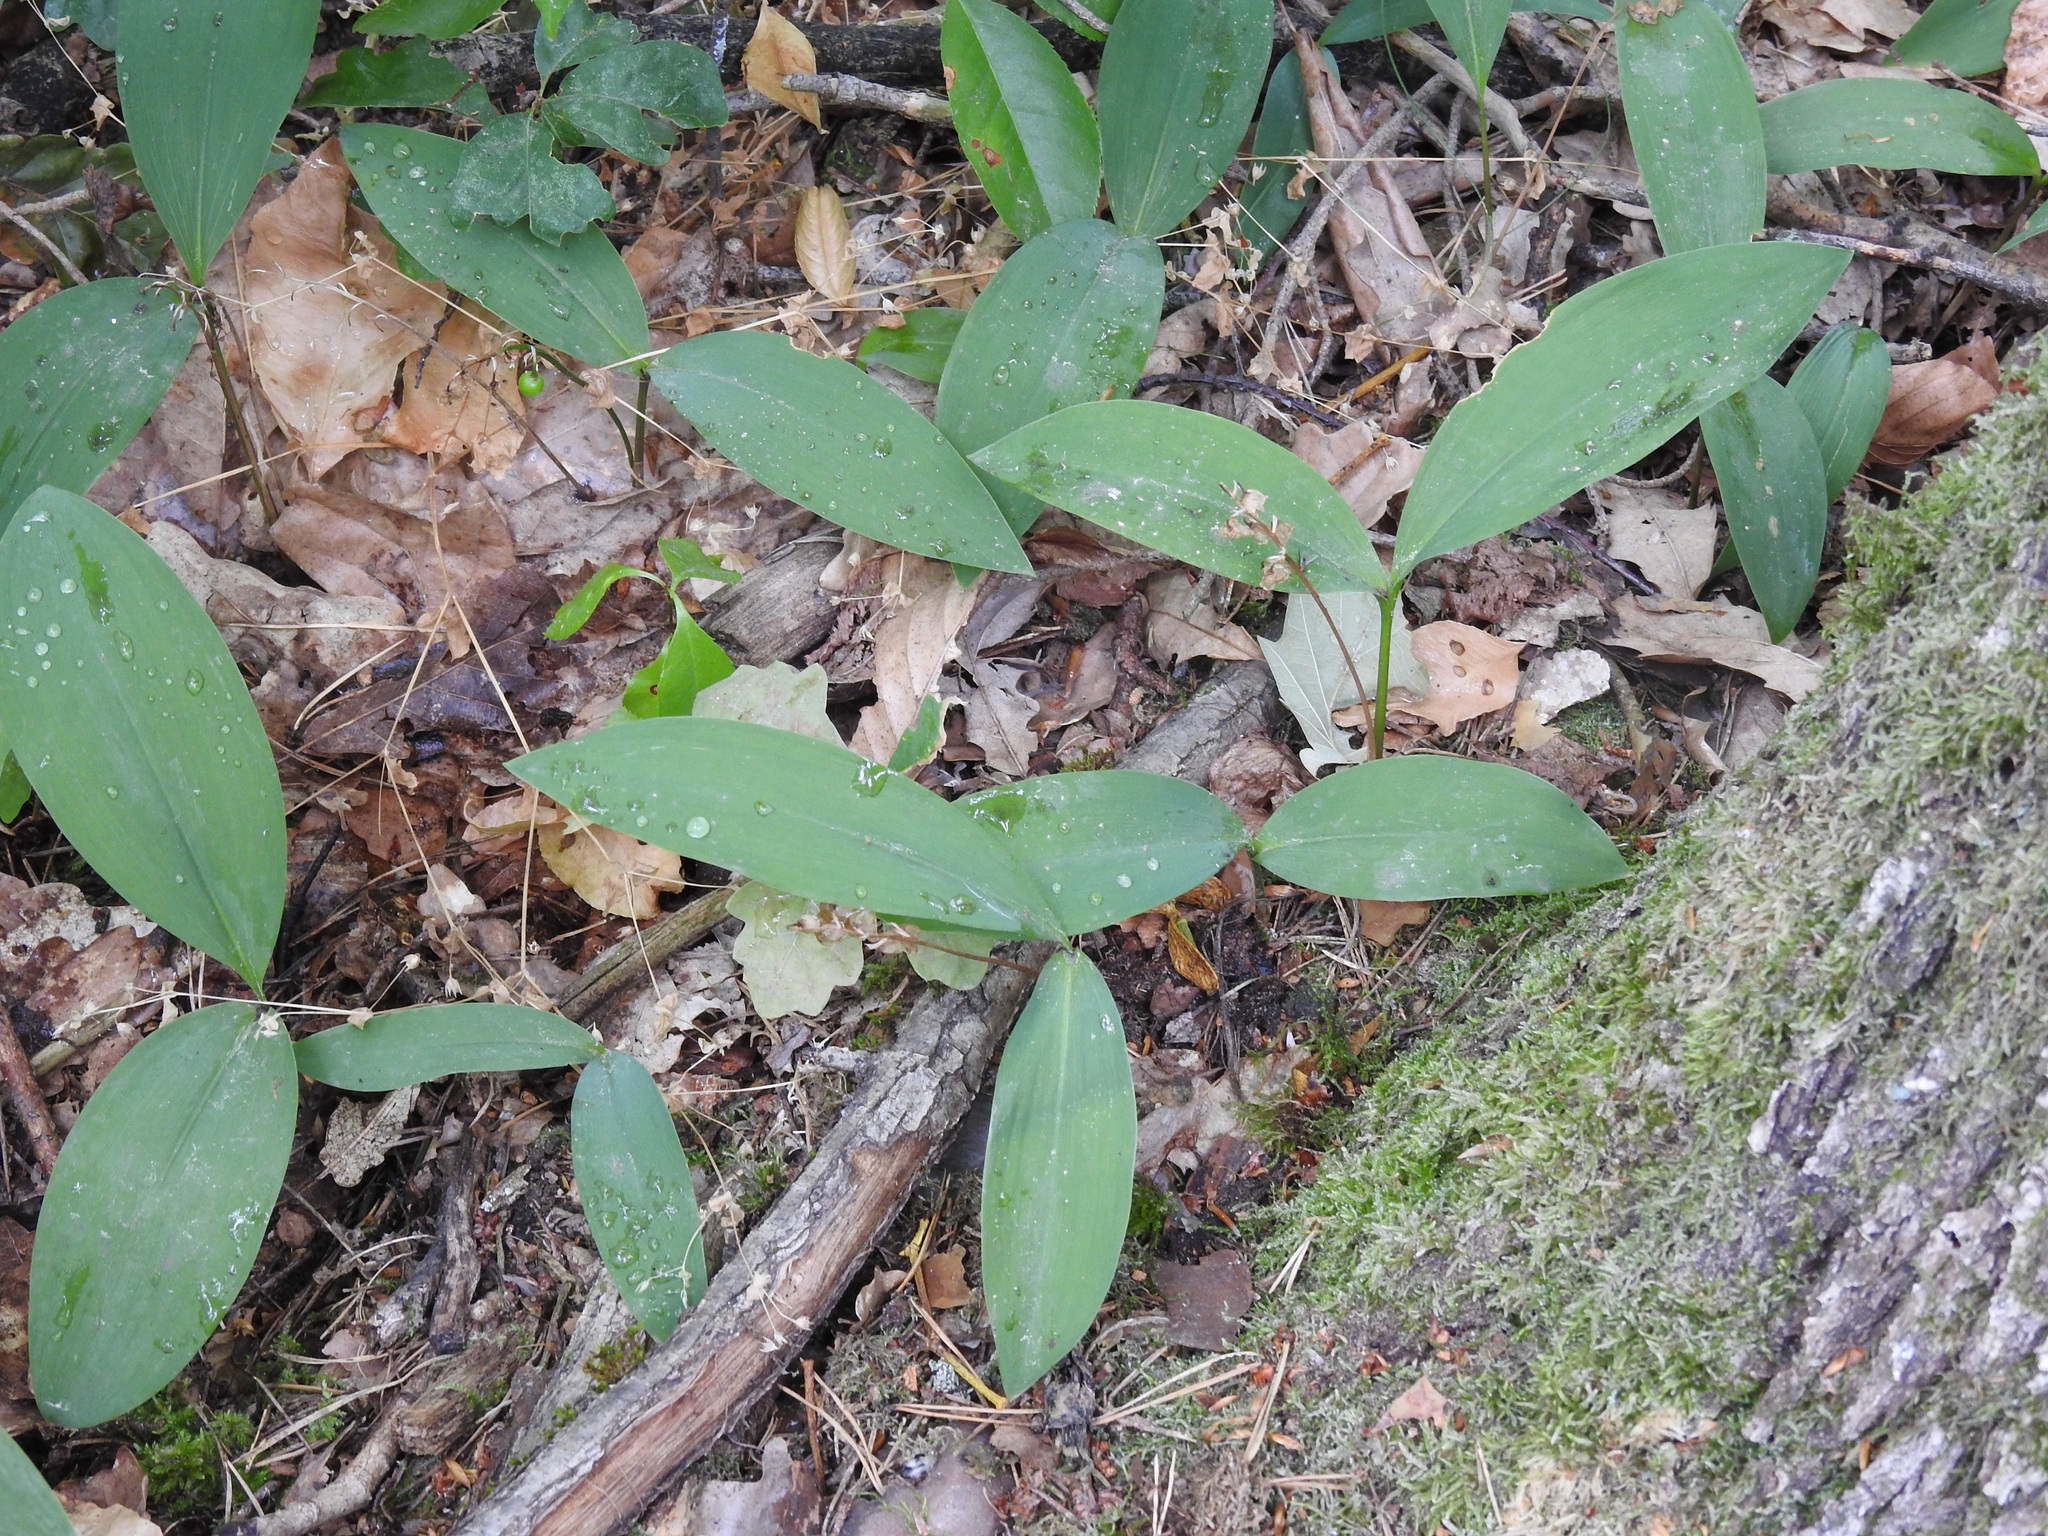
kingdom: Plantae
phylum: Tracheophyta
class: Liliopsida
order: Asparagales
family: Asparagaceae
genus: Convallaria
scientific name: Convallaria majalis
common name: Lily-of-the-valley
